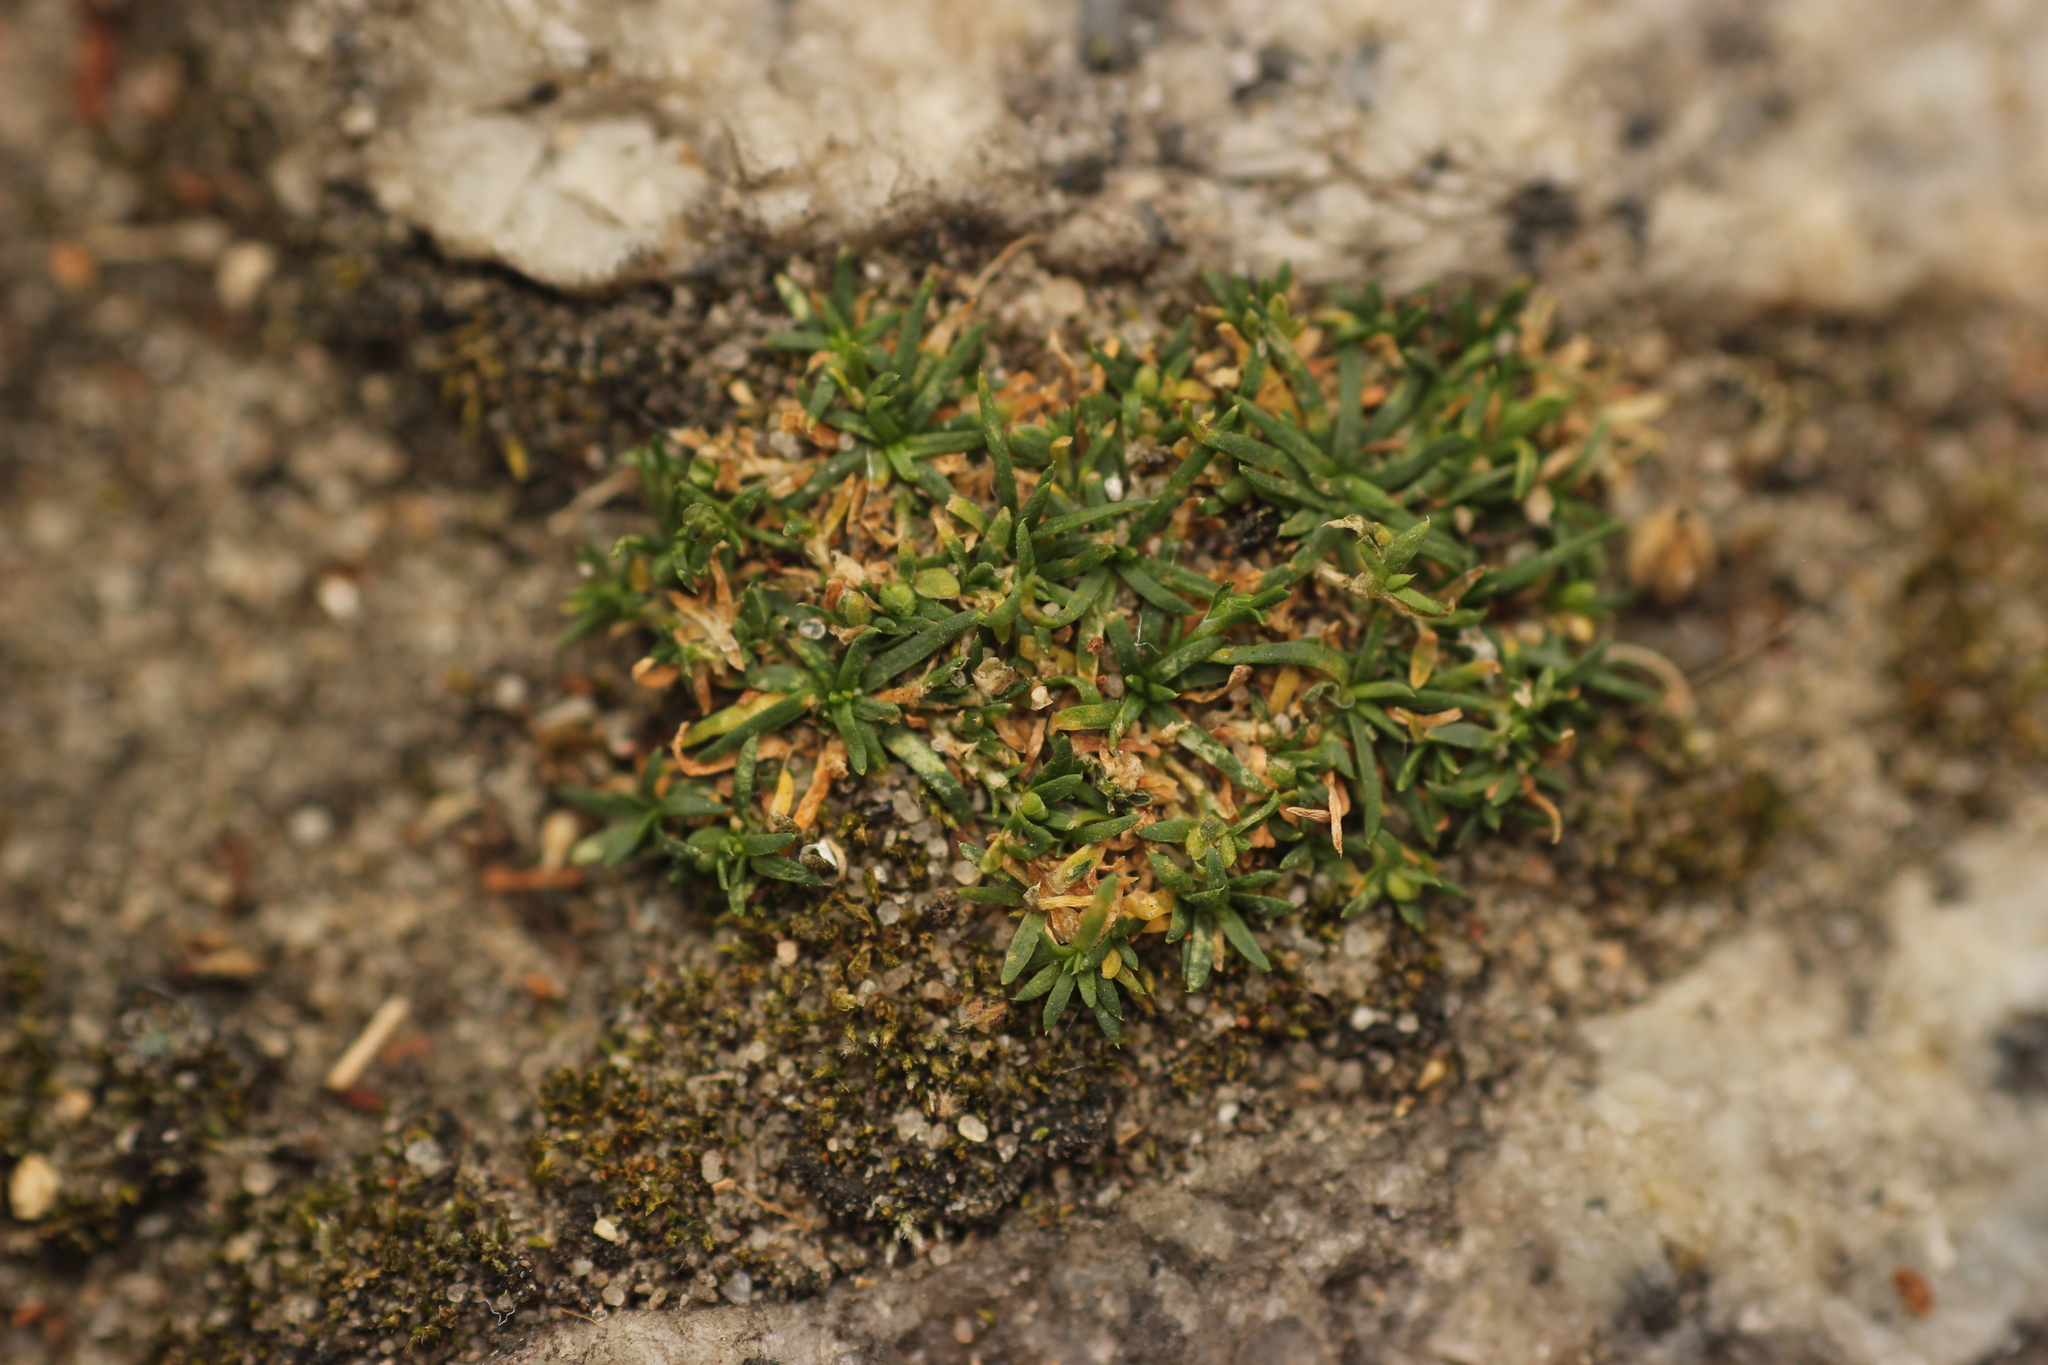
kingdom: Plantae
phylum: Tracheophyta
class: Magnoliopsida
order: Caryophyllales
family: Caryophyllaceae
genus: Sagina
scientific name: Sagina procumbens
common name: Procumbent pearlwort
